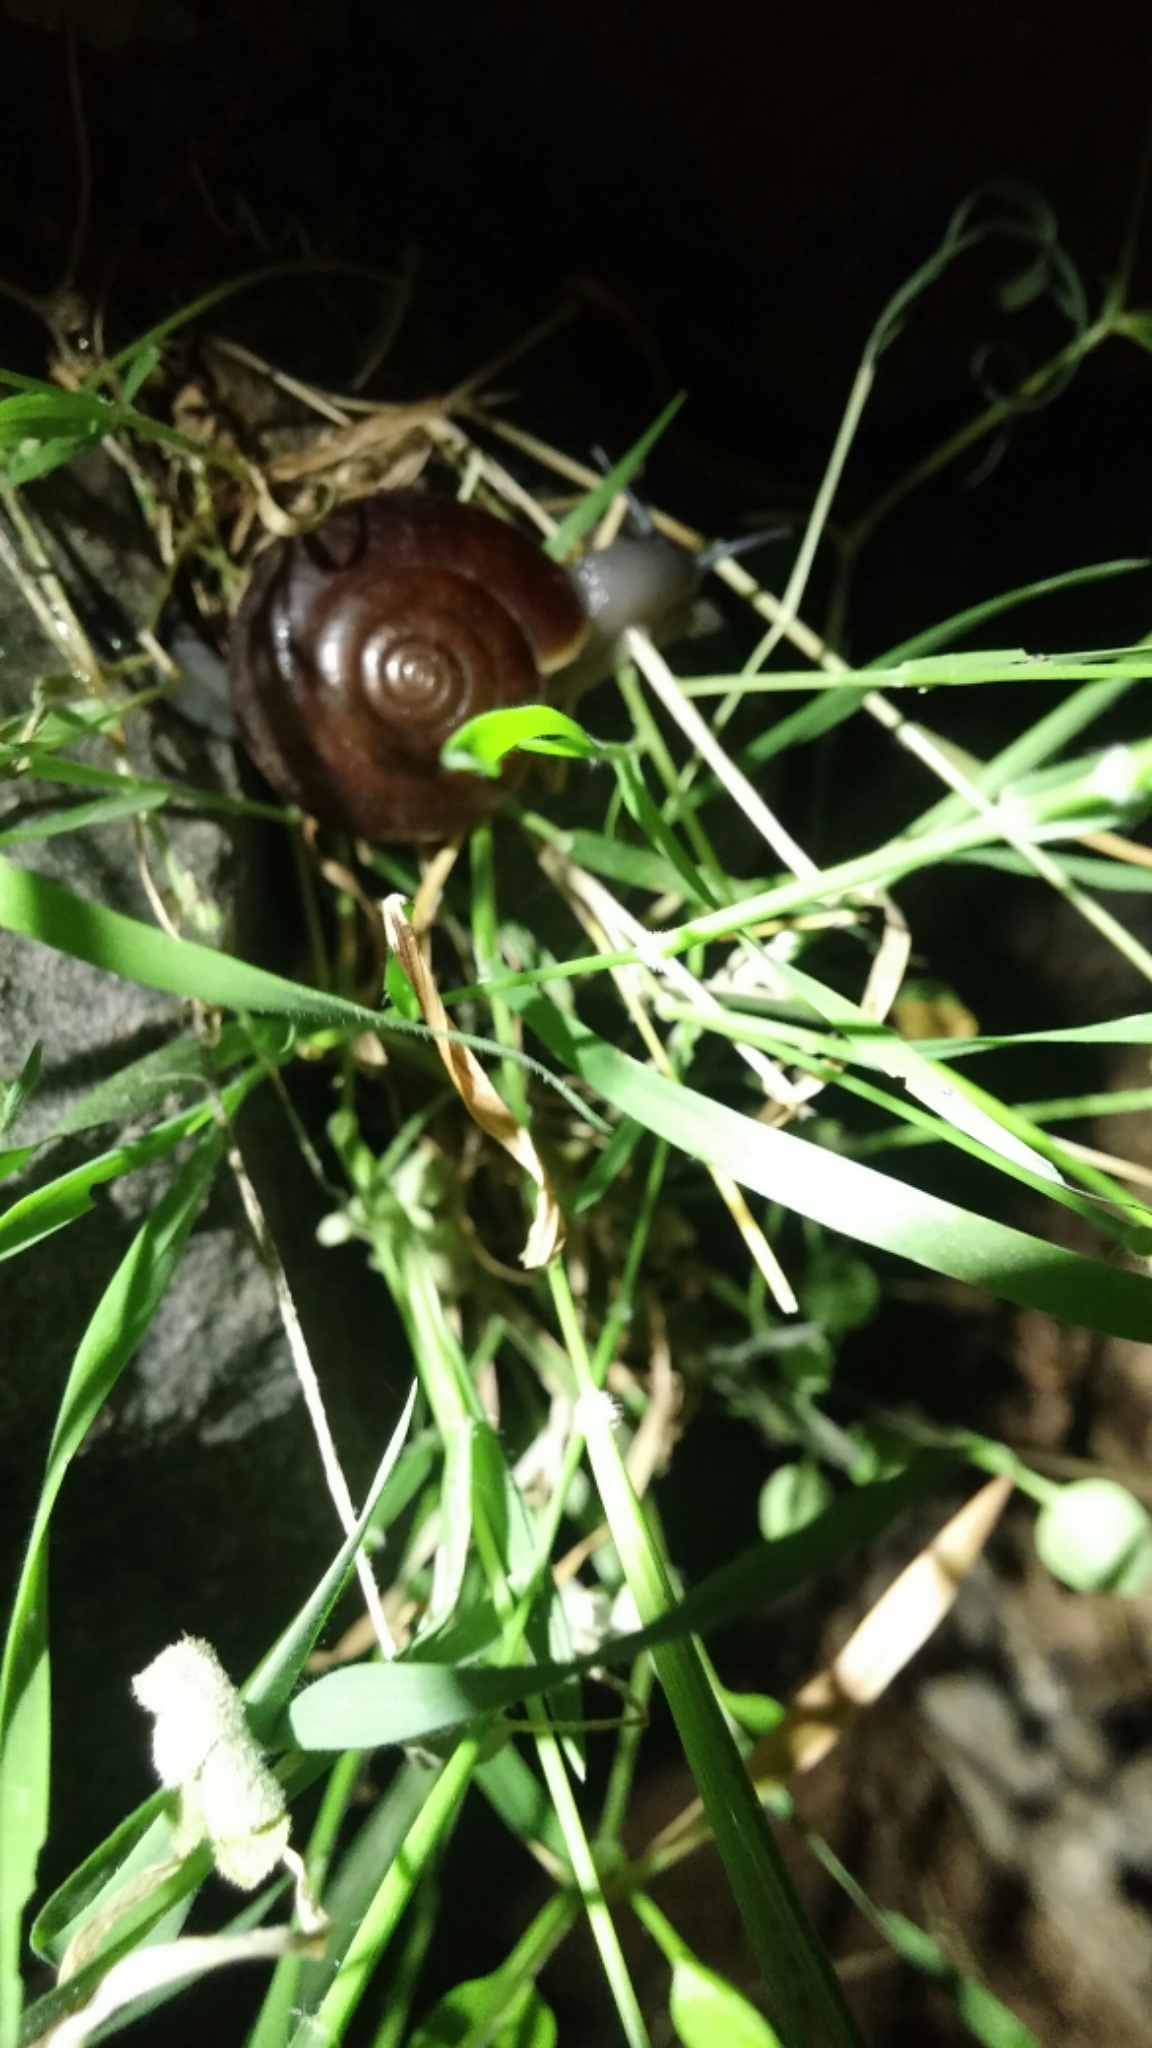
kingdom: Animalia
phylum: Mollusca
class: Gastropoda
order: Stylommatophora
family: Megomphicidae
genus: Glyptostoma
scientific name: Glyptostoma newberryanum
